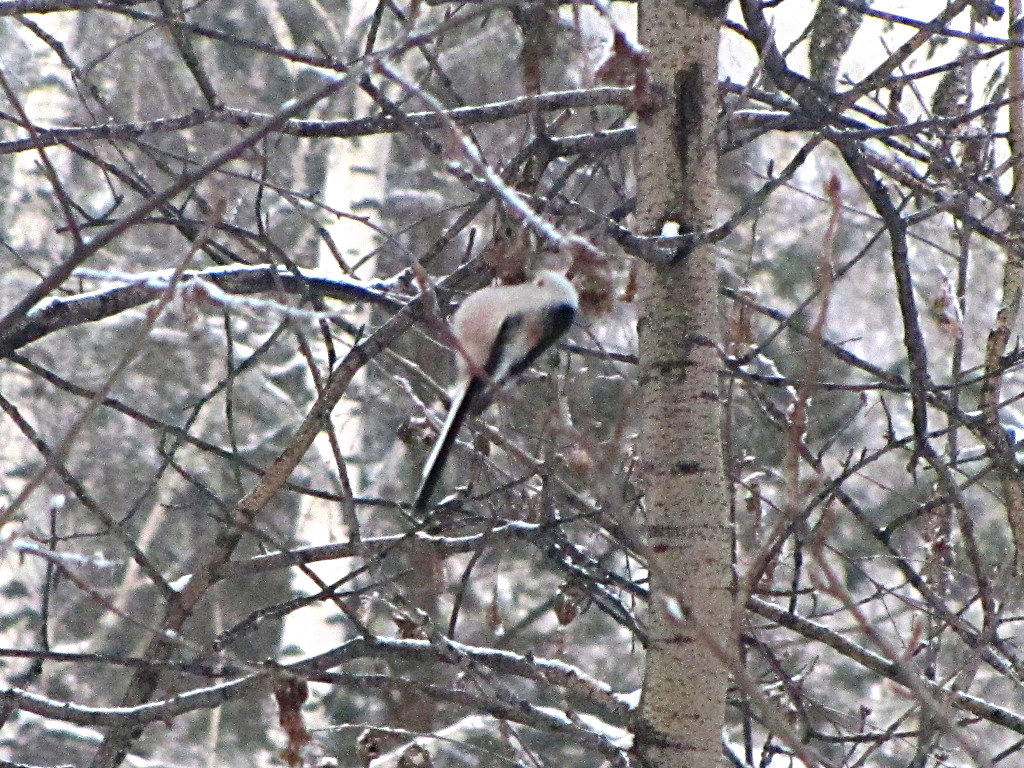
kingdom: Animalia
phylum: Chordata
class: Aves
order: Passeriformes
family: Aegithalidae
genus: Aegithalos
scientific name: Aegithalos caudatus
